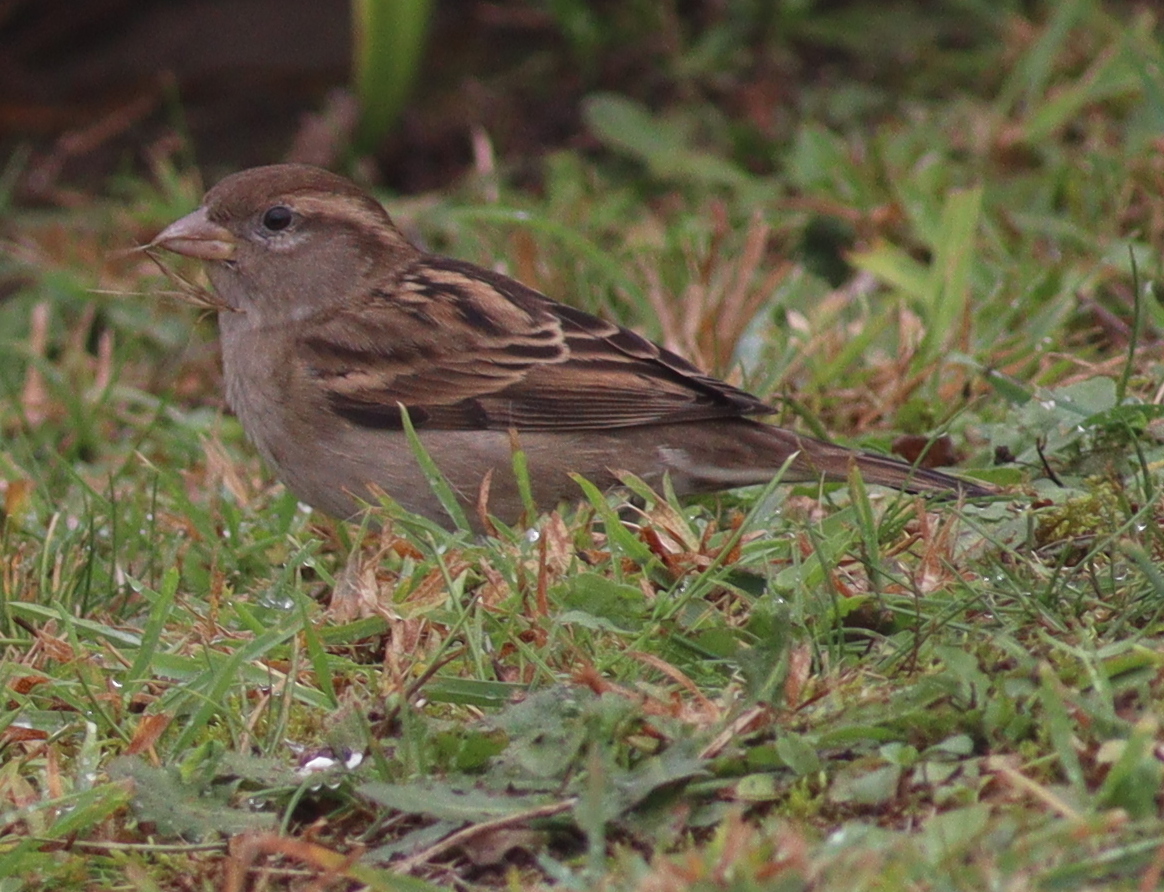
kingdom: Animalia
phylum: Chordata
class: Aves
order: Passeriformes
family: Passeridae
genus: Passer
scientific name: Passer domesticus
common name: House sparrow
